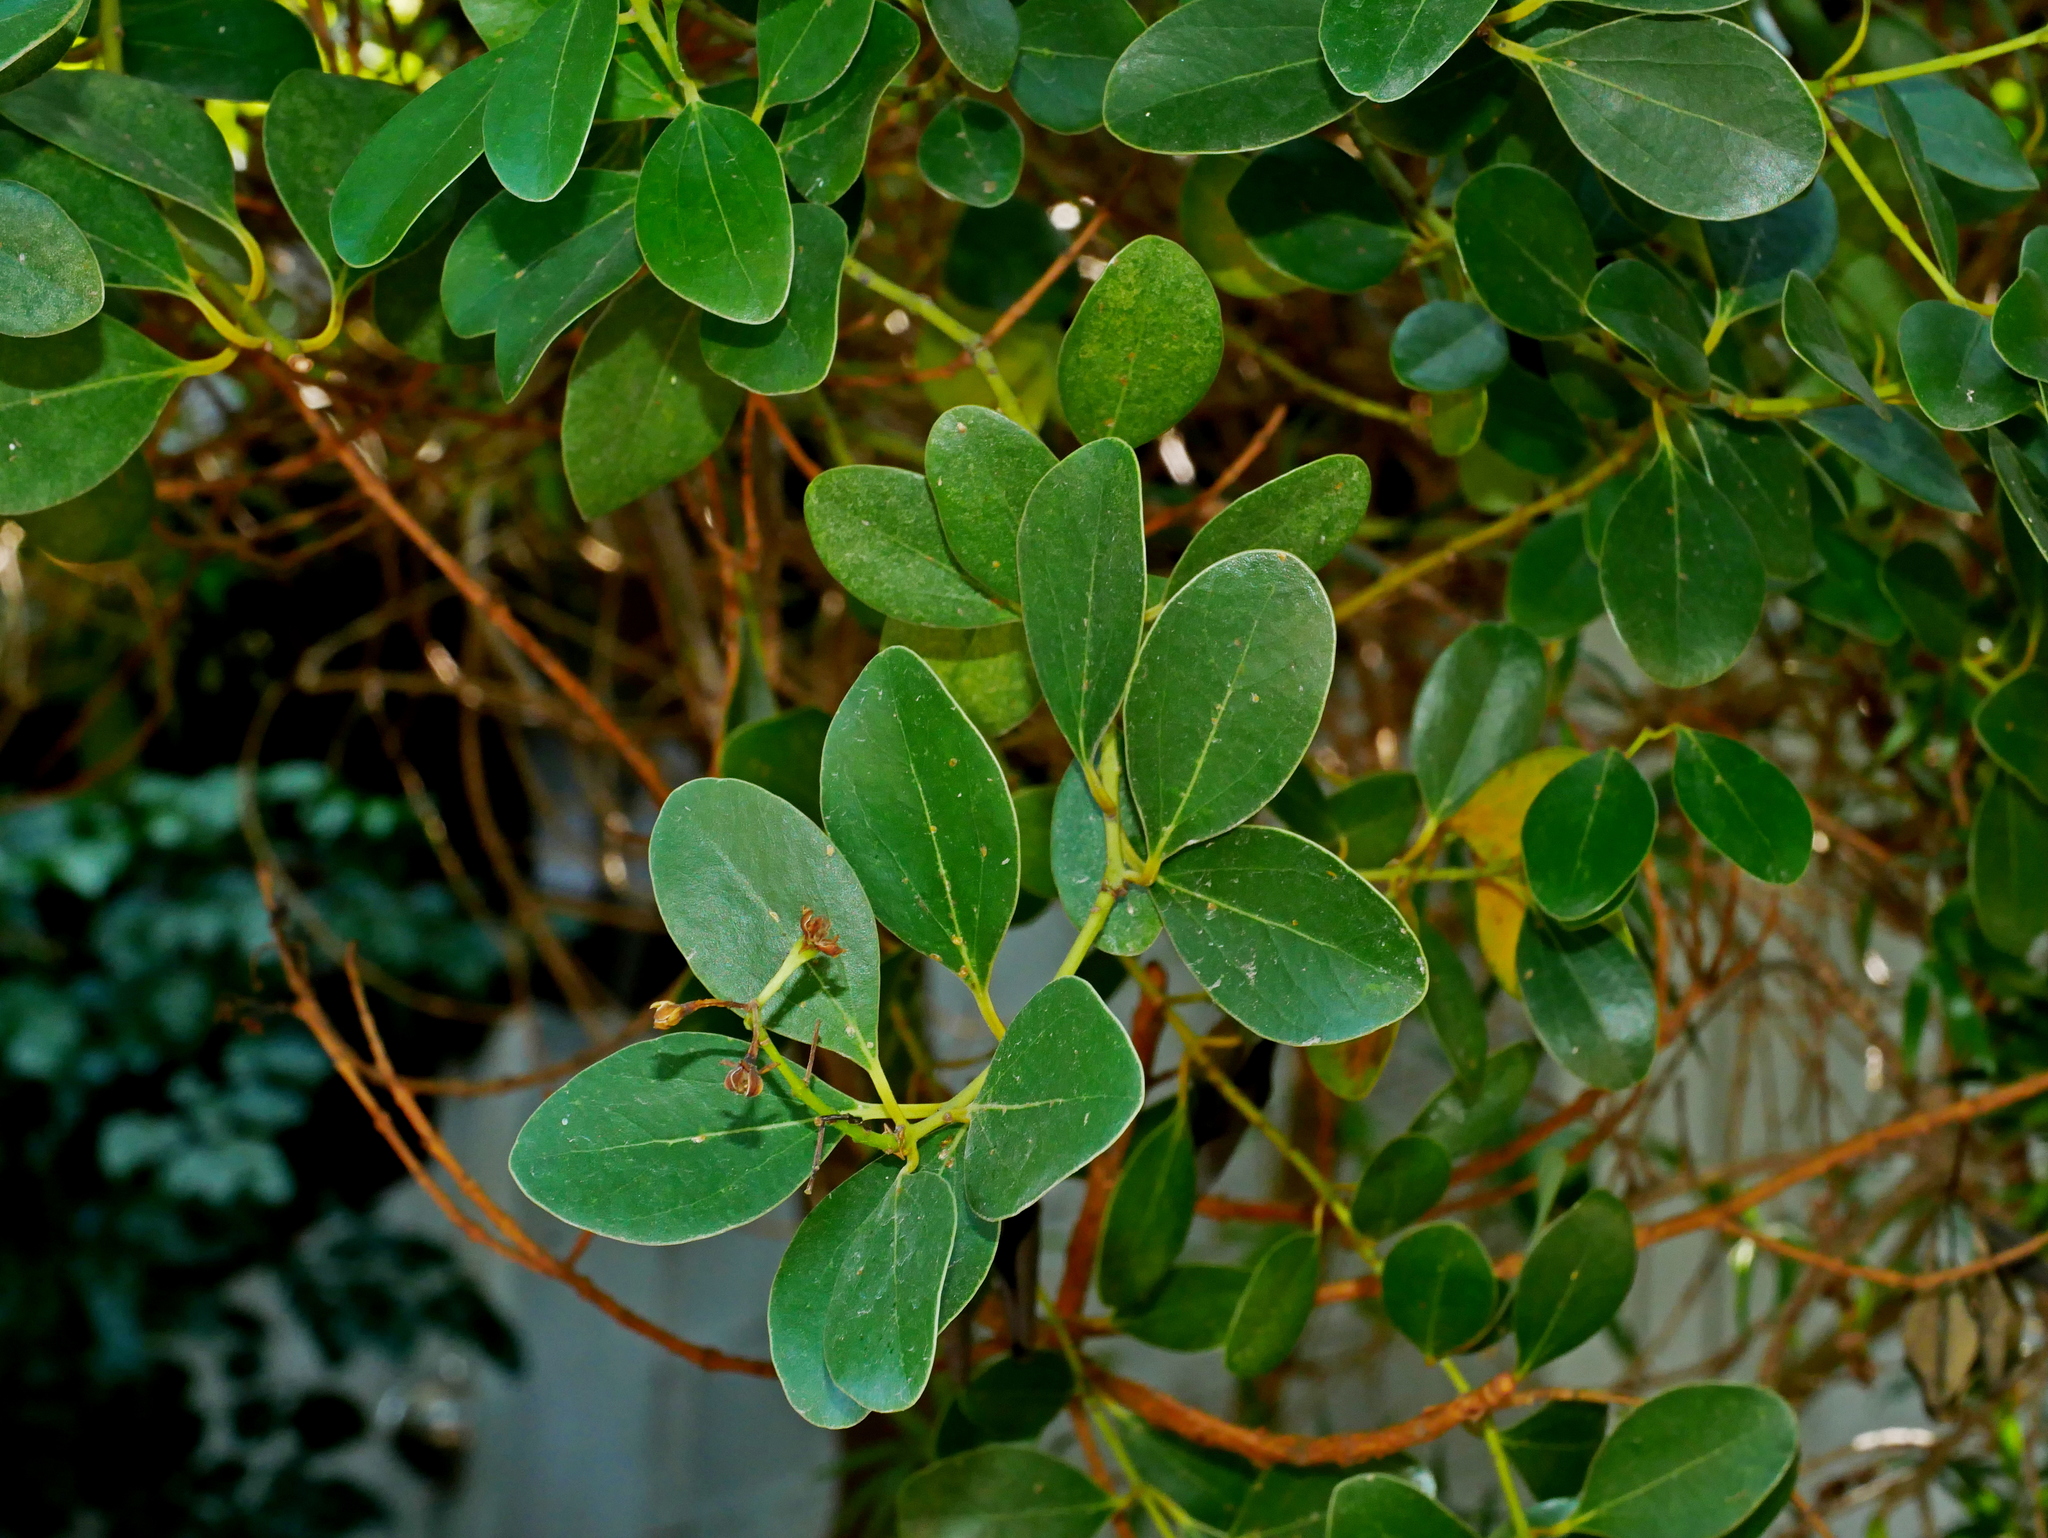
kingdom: Plantae
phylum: Tracheophyta
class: Magnoliopsida
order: Laurales
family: Lauraceae
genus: Cinnamomum
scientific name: Cinnamomum reticulatum
